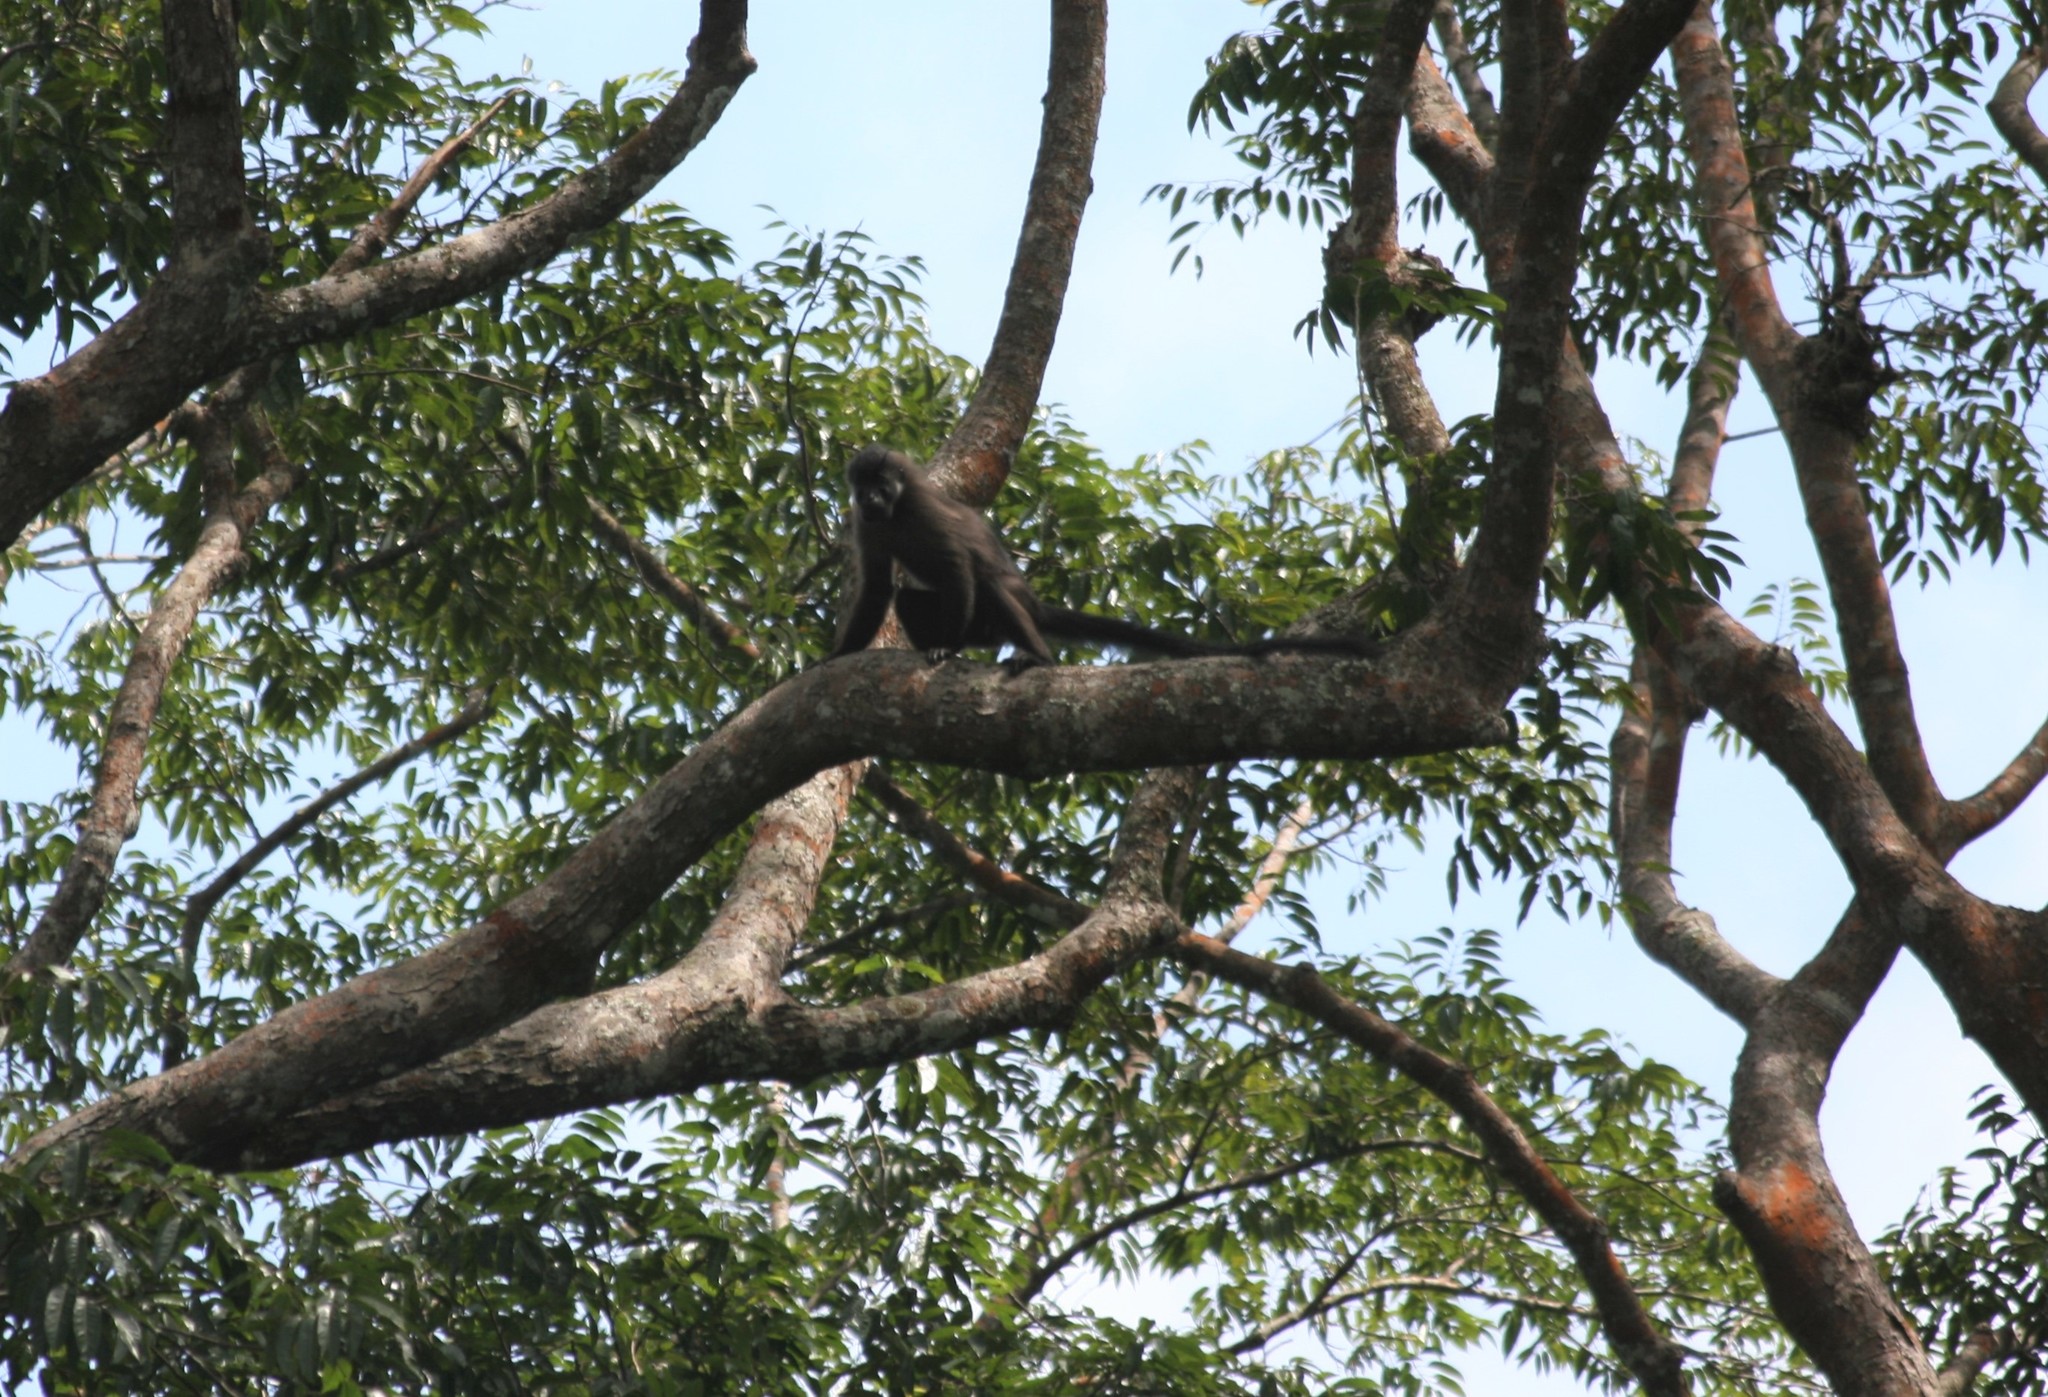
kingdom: Animalia
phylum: Chordata
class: Mammalia
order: Primates
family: Cercopithecidae
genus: Lophocebus
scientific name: Lophocebus albigena
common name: Gray-cheeked mangabey
